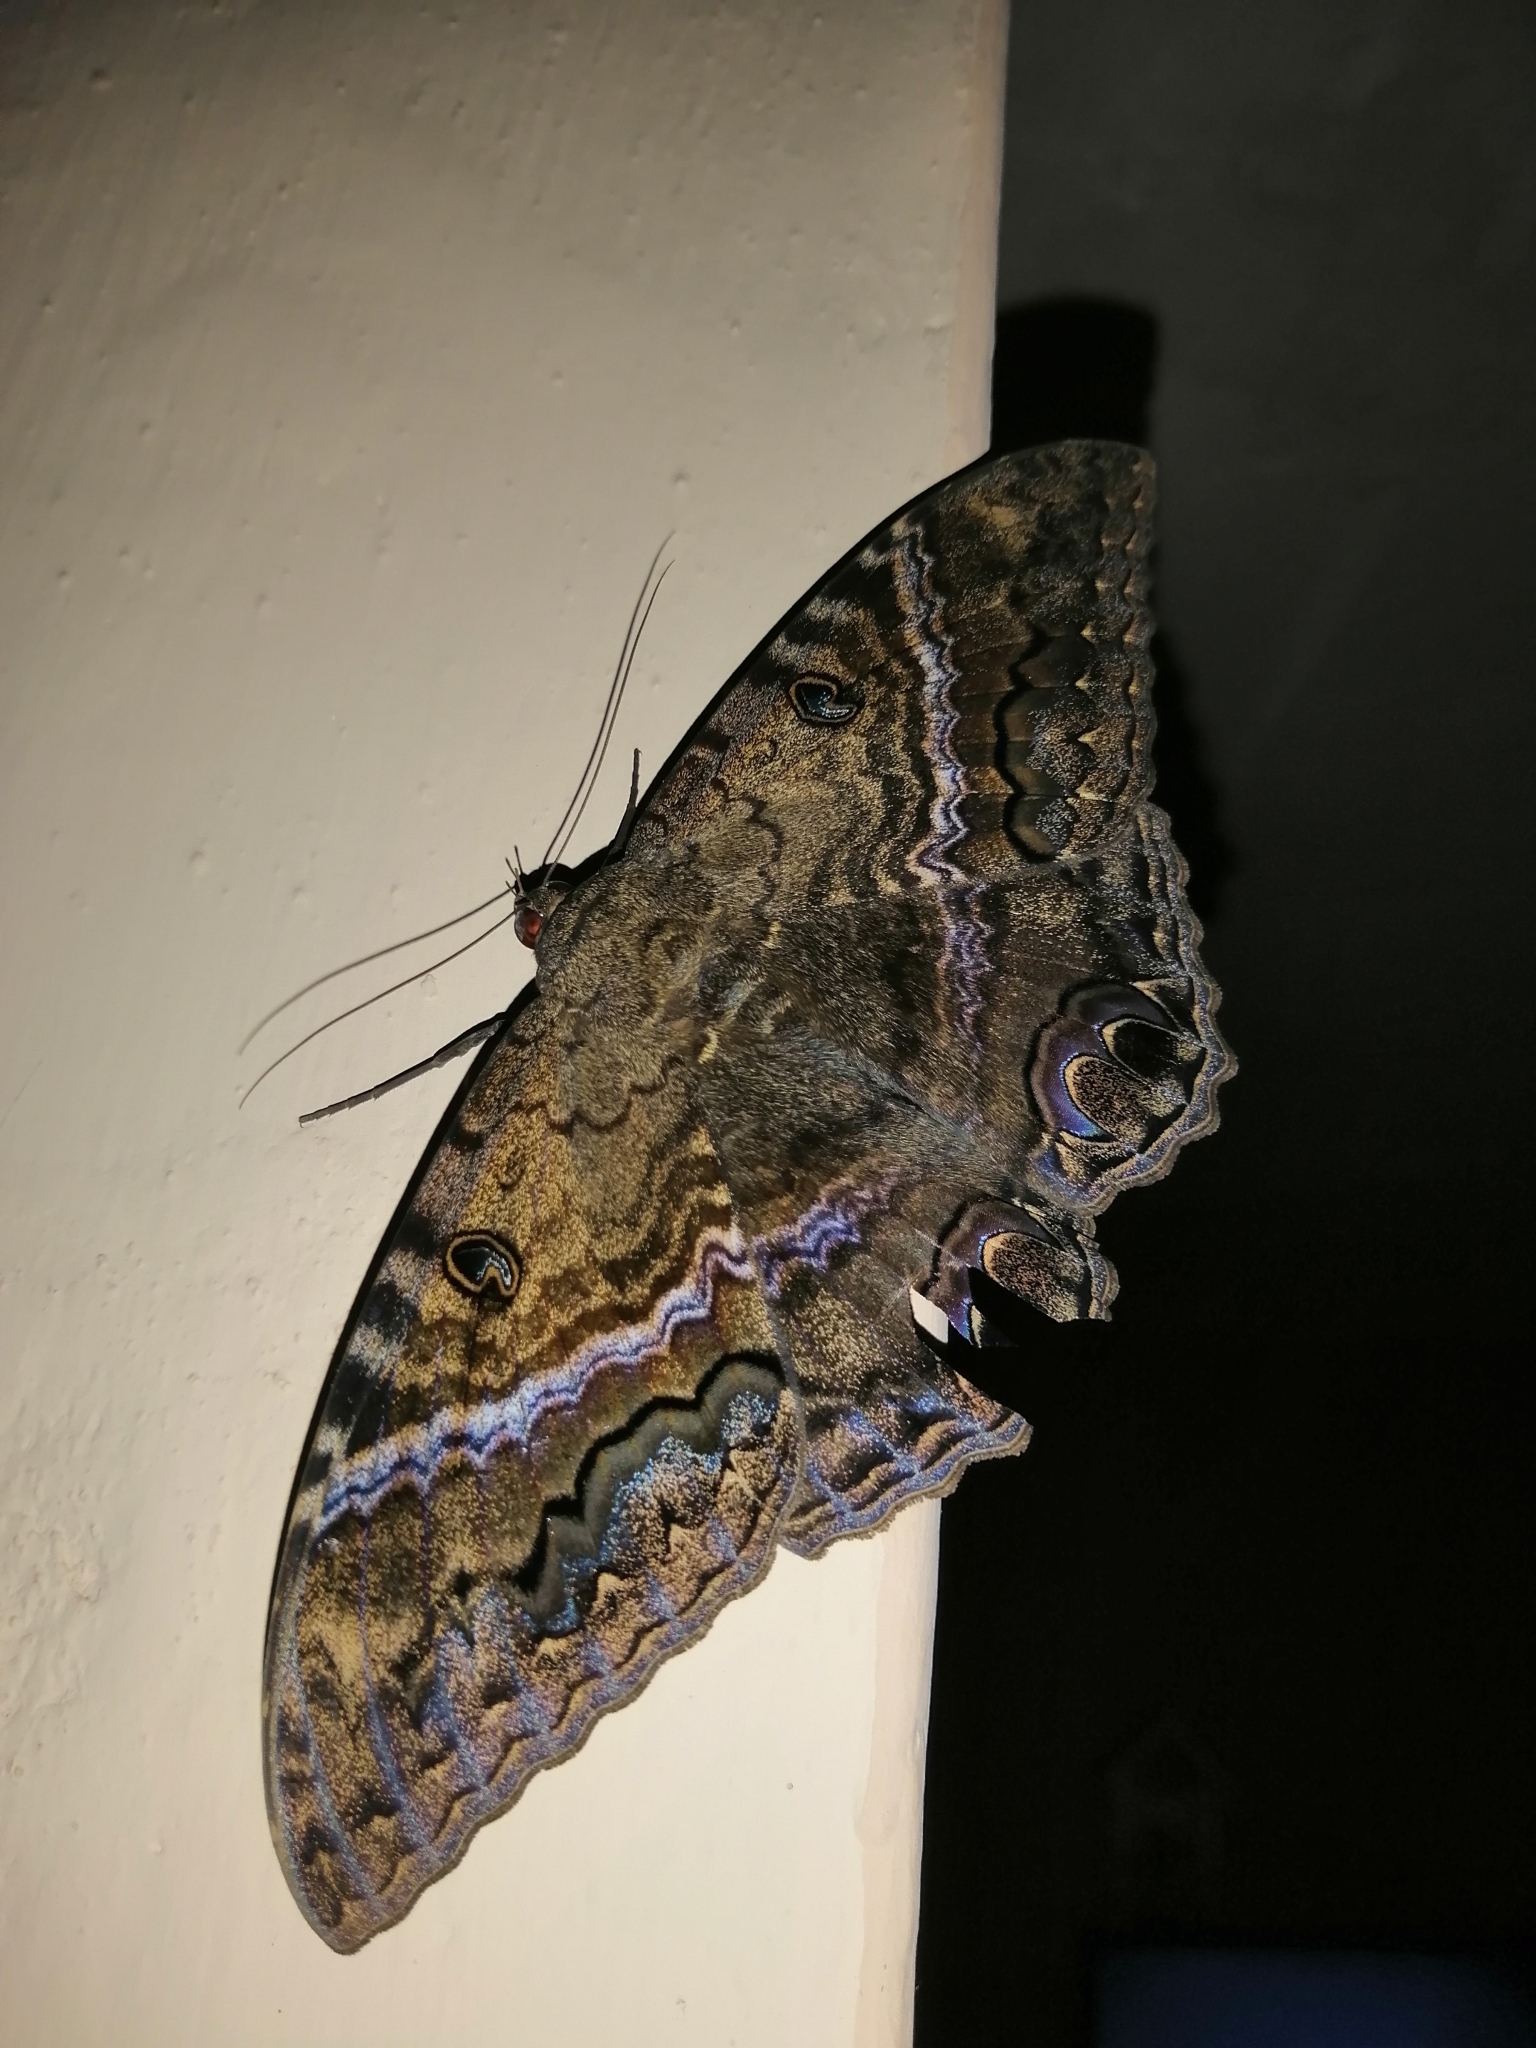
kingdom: Animalia
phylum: Arthropoda
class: Insecta
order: Lepidoptera
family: Erebidae
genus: Ascalapha
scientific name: Ascalapha odorata
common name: Black witch
